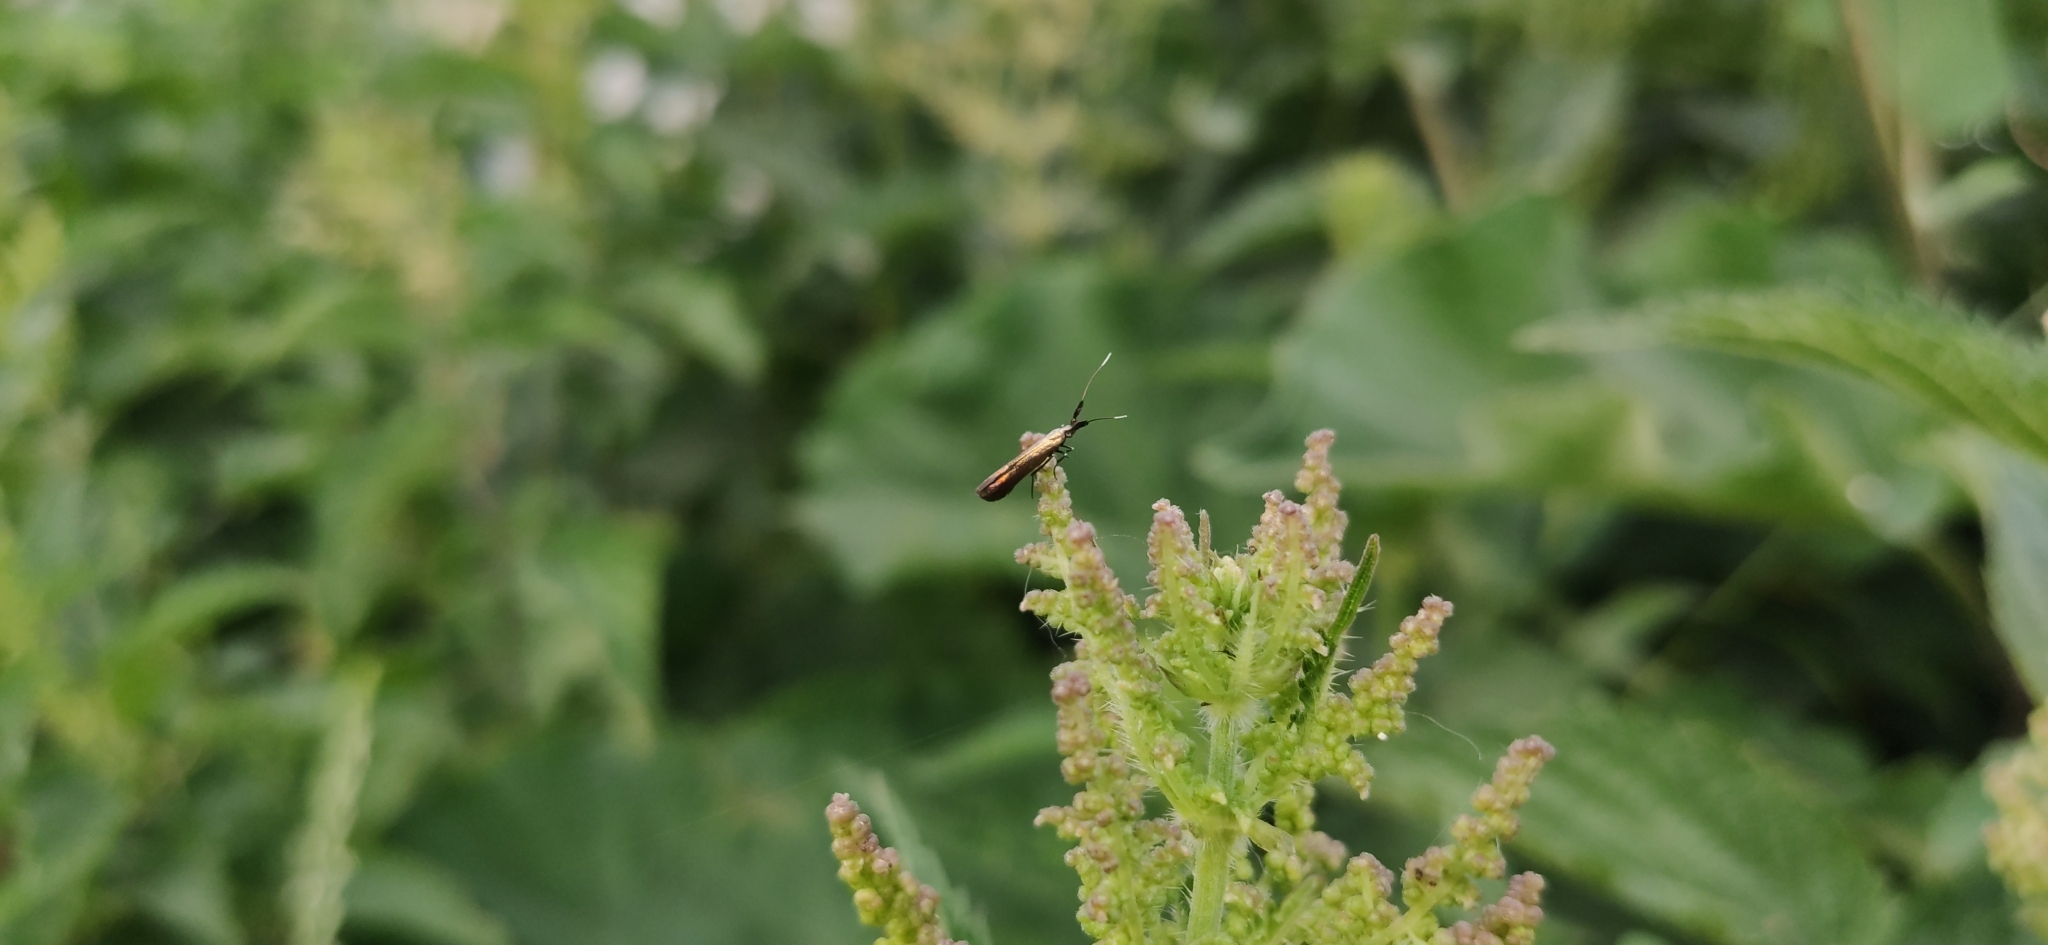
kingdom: Animalia
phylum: Arthropoda
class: Insecta
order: Lepidoptera
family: Coleophoridae
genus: Coleophora
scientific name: Coleophora deauratella
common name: Red-clover case-bearer
